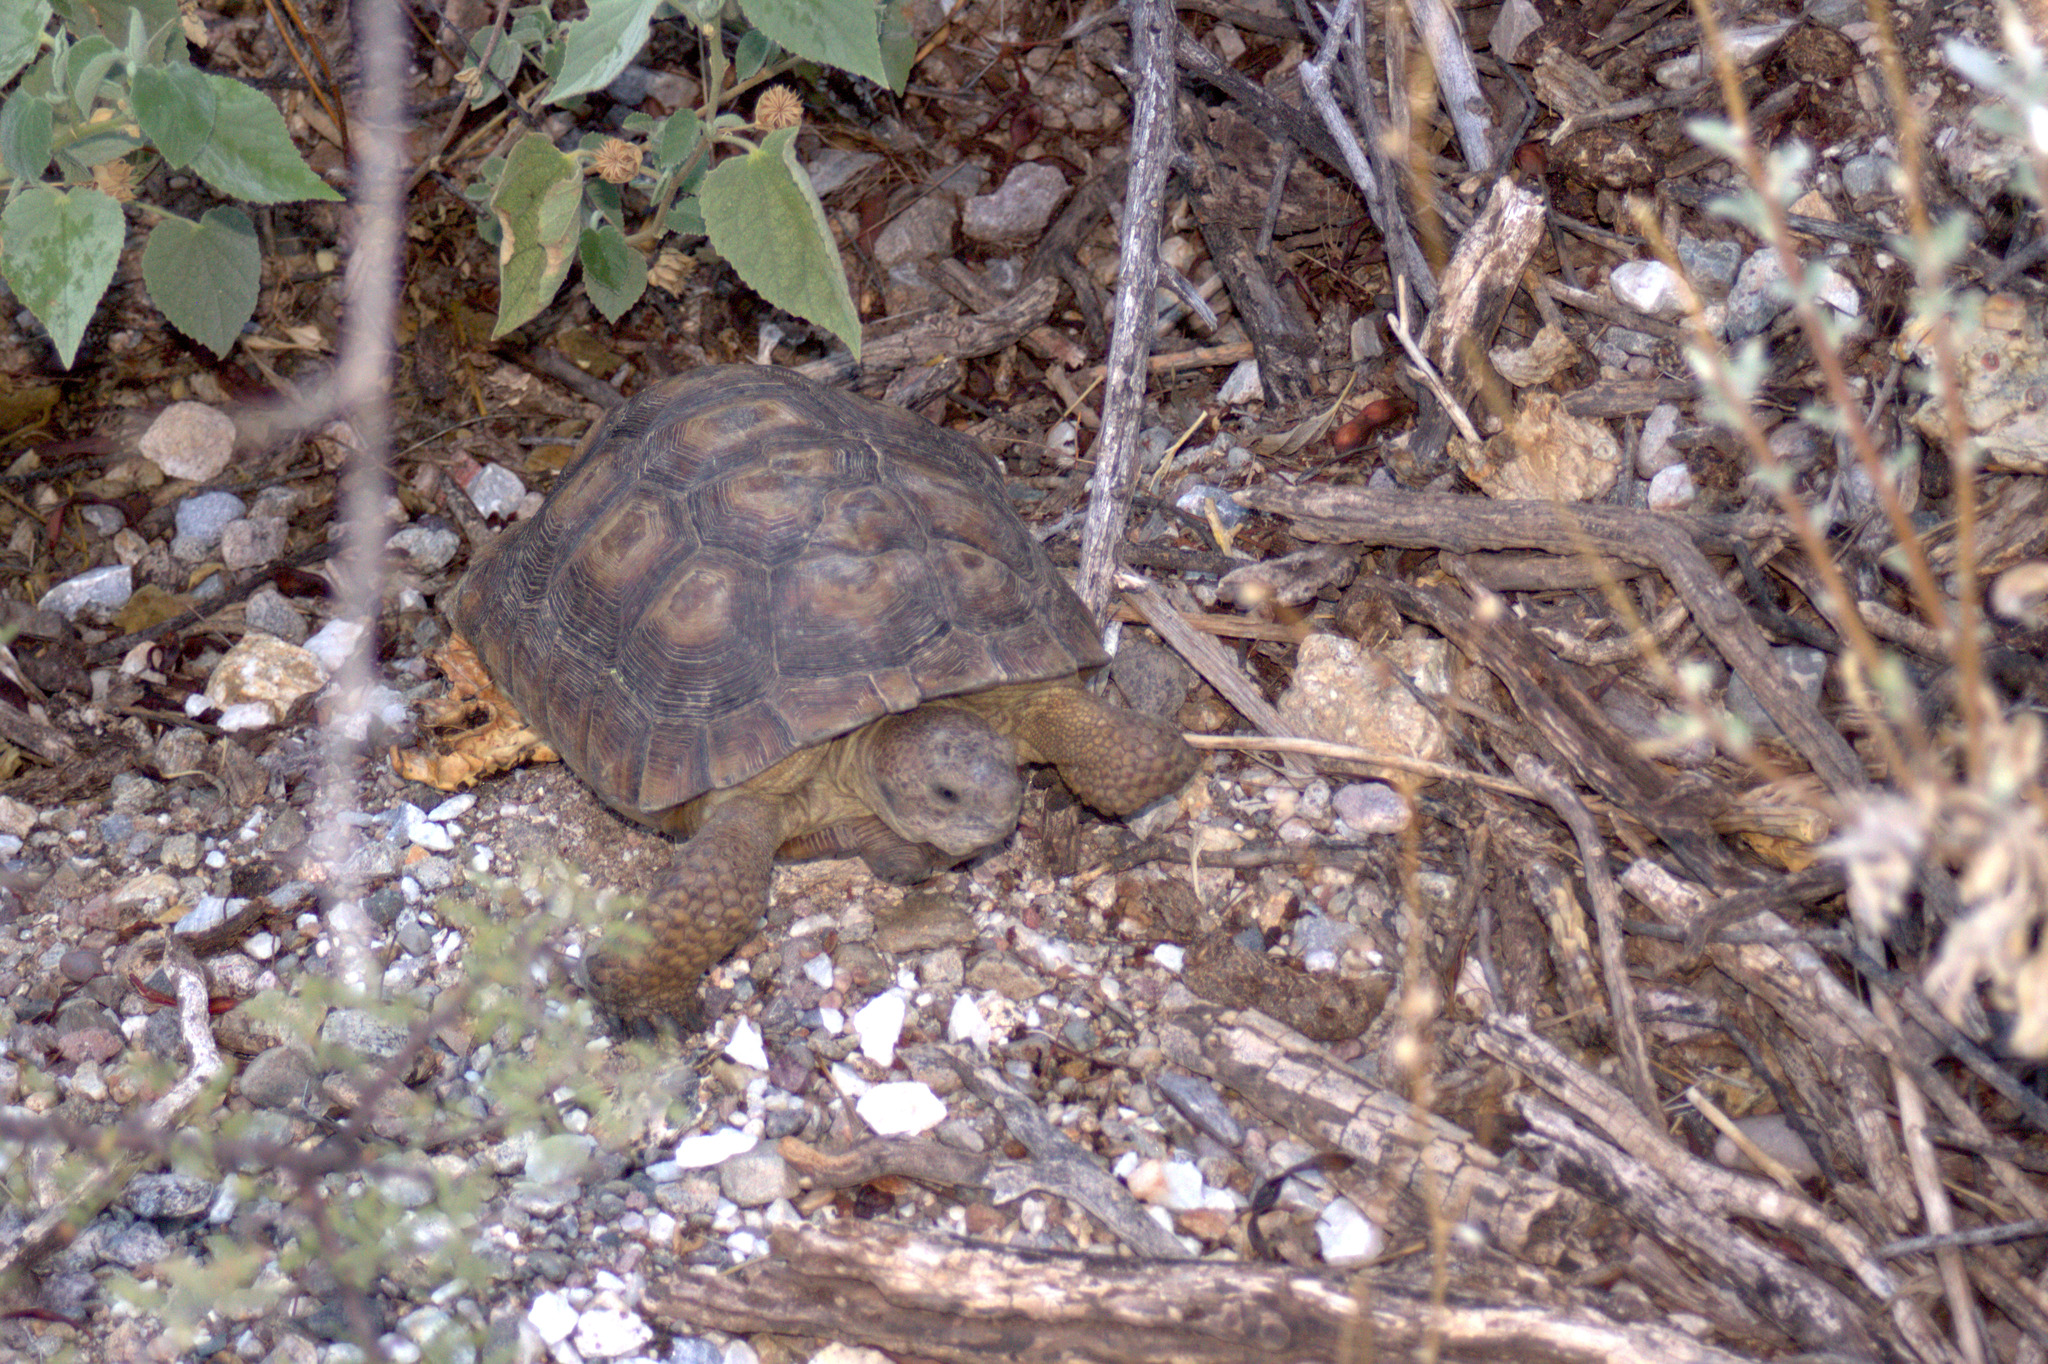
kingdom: Animalia
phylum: Chordata
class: Testudines
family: Testudinidae
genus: Gopherus
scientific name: Gopherus morafkai
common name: Sonoran desert tortoise
